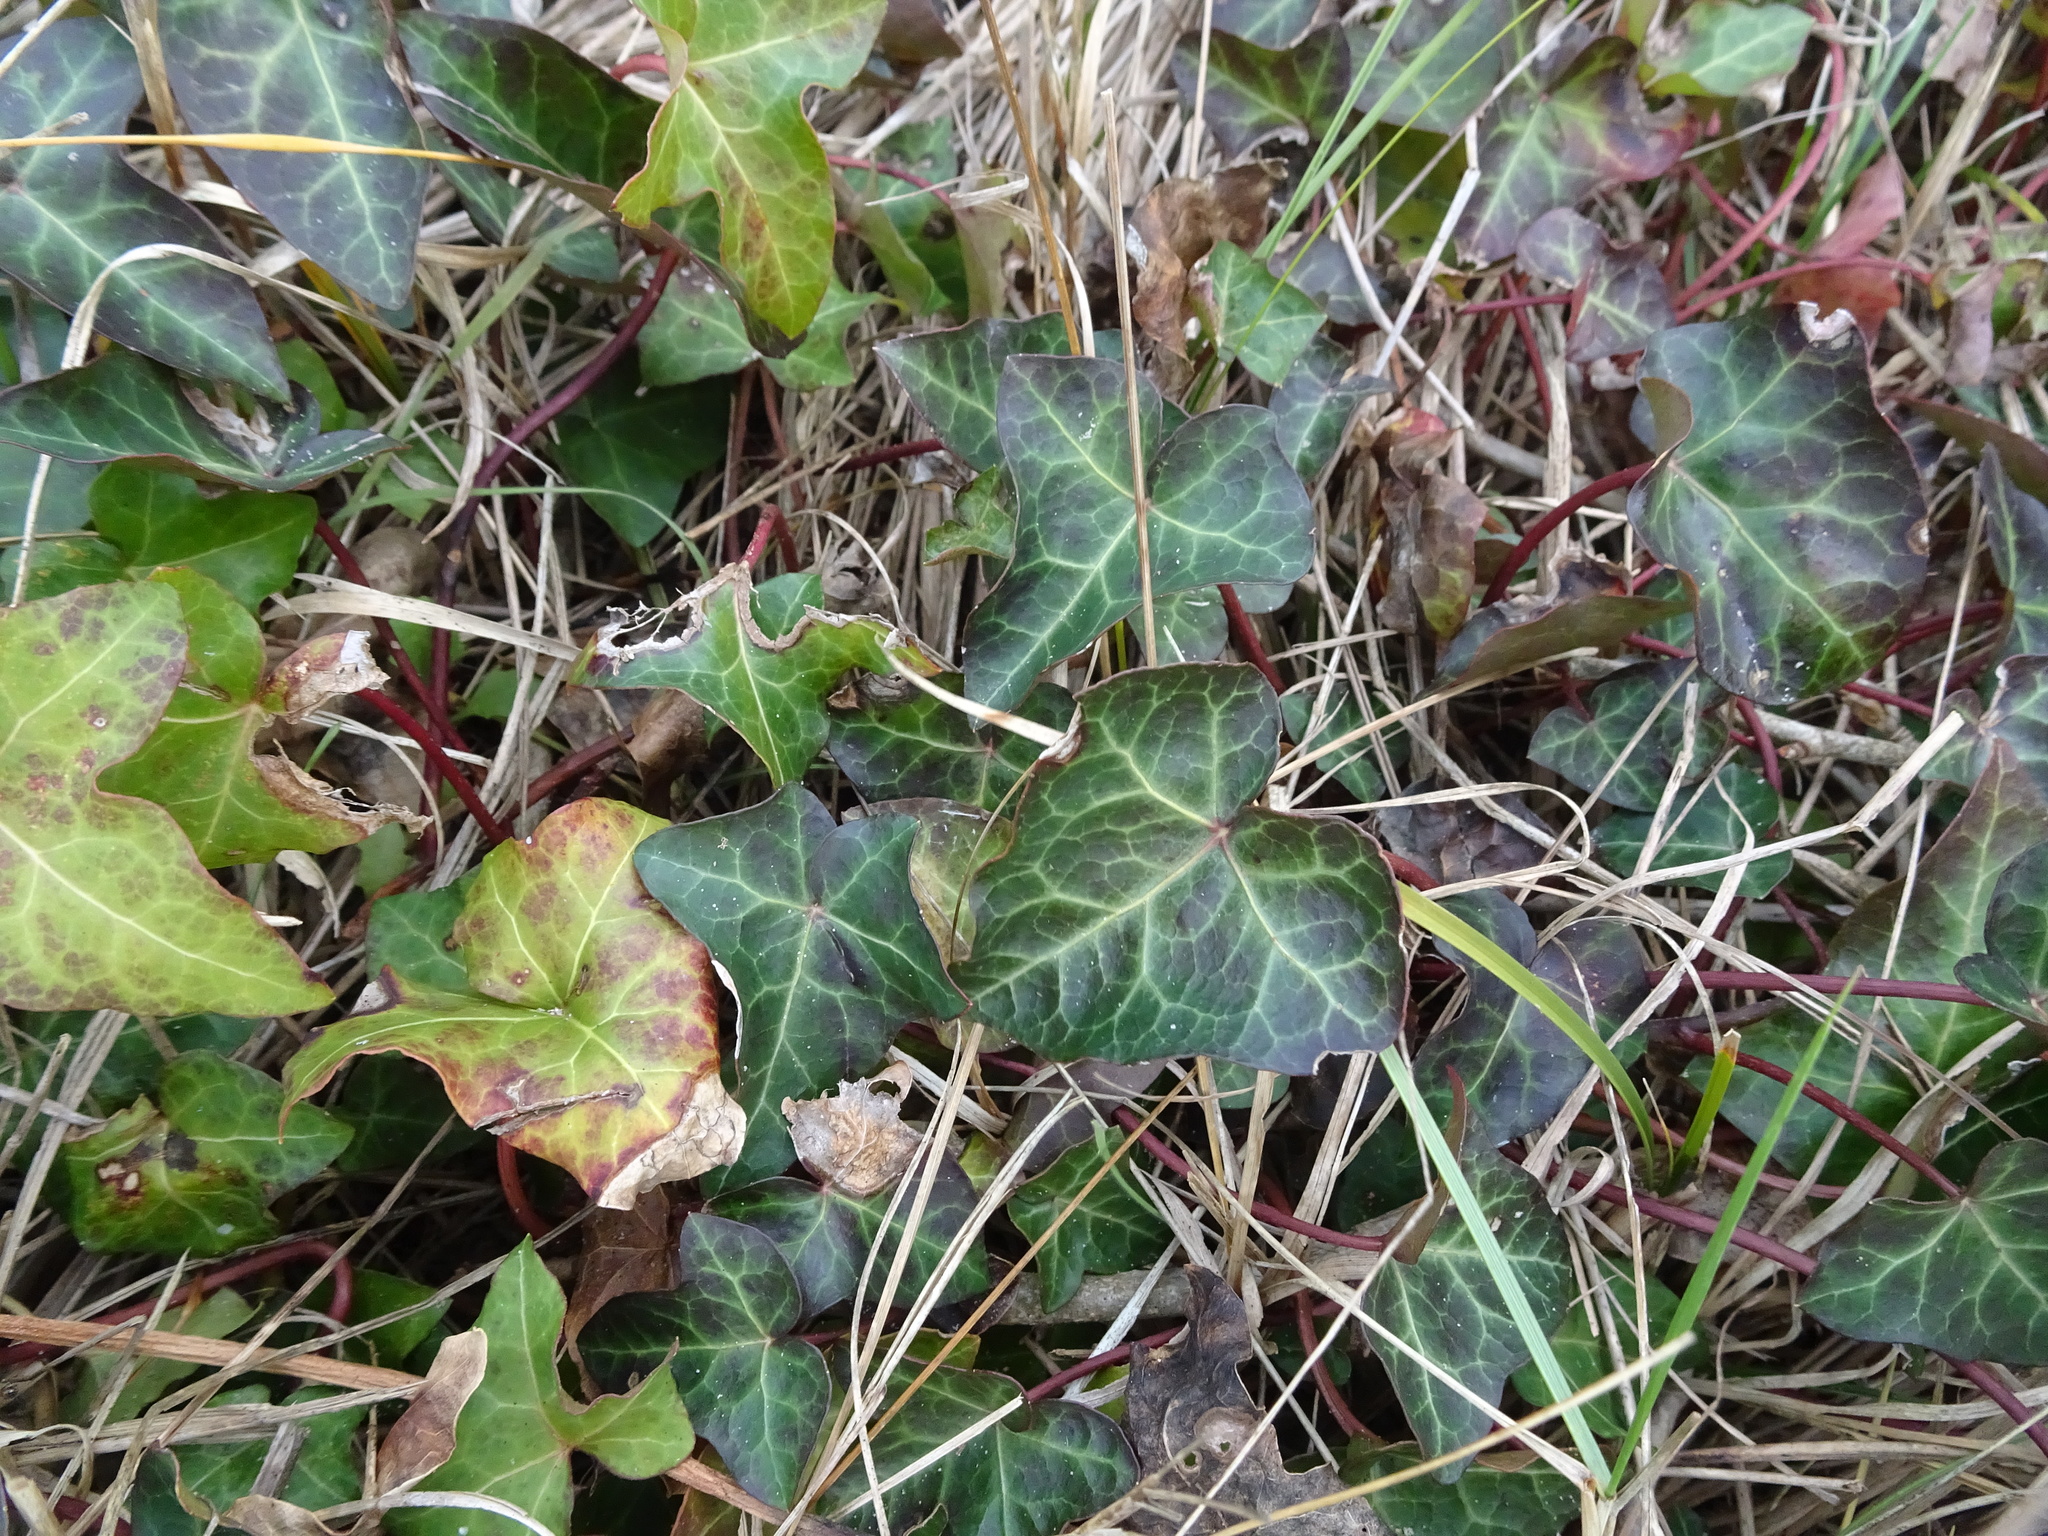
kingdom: Plantae
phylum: Tracheophyta
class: Magnoliopsida
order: Apiales
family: Araliaceae
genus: Hedera
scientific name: Hedera helix
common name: Ivy
